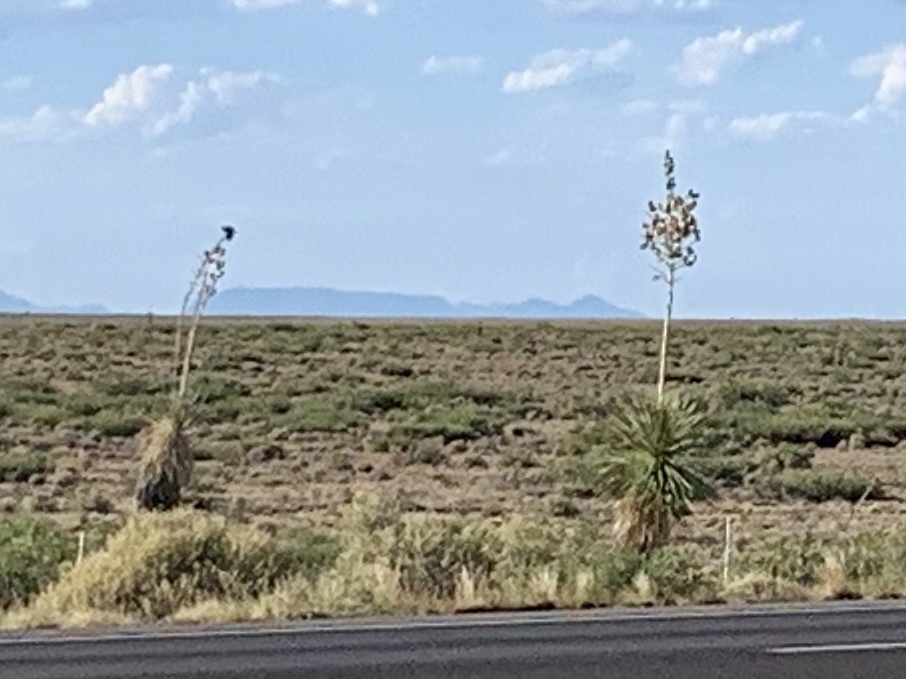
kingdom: Plantae
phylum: Tracheophyta
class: Liliopsida
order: Asparagales
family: Asparagaceae
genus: Yucca
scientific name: Yucca elata
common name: Palmella
